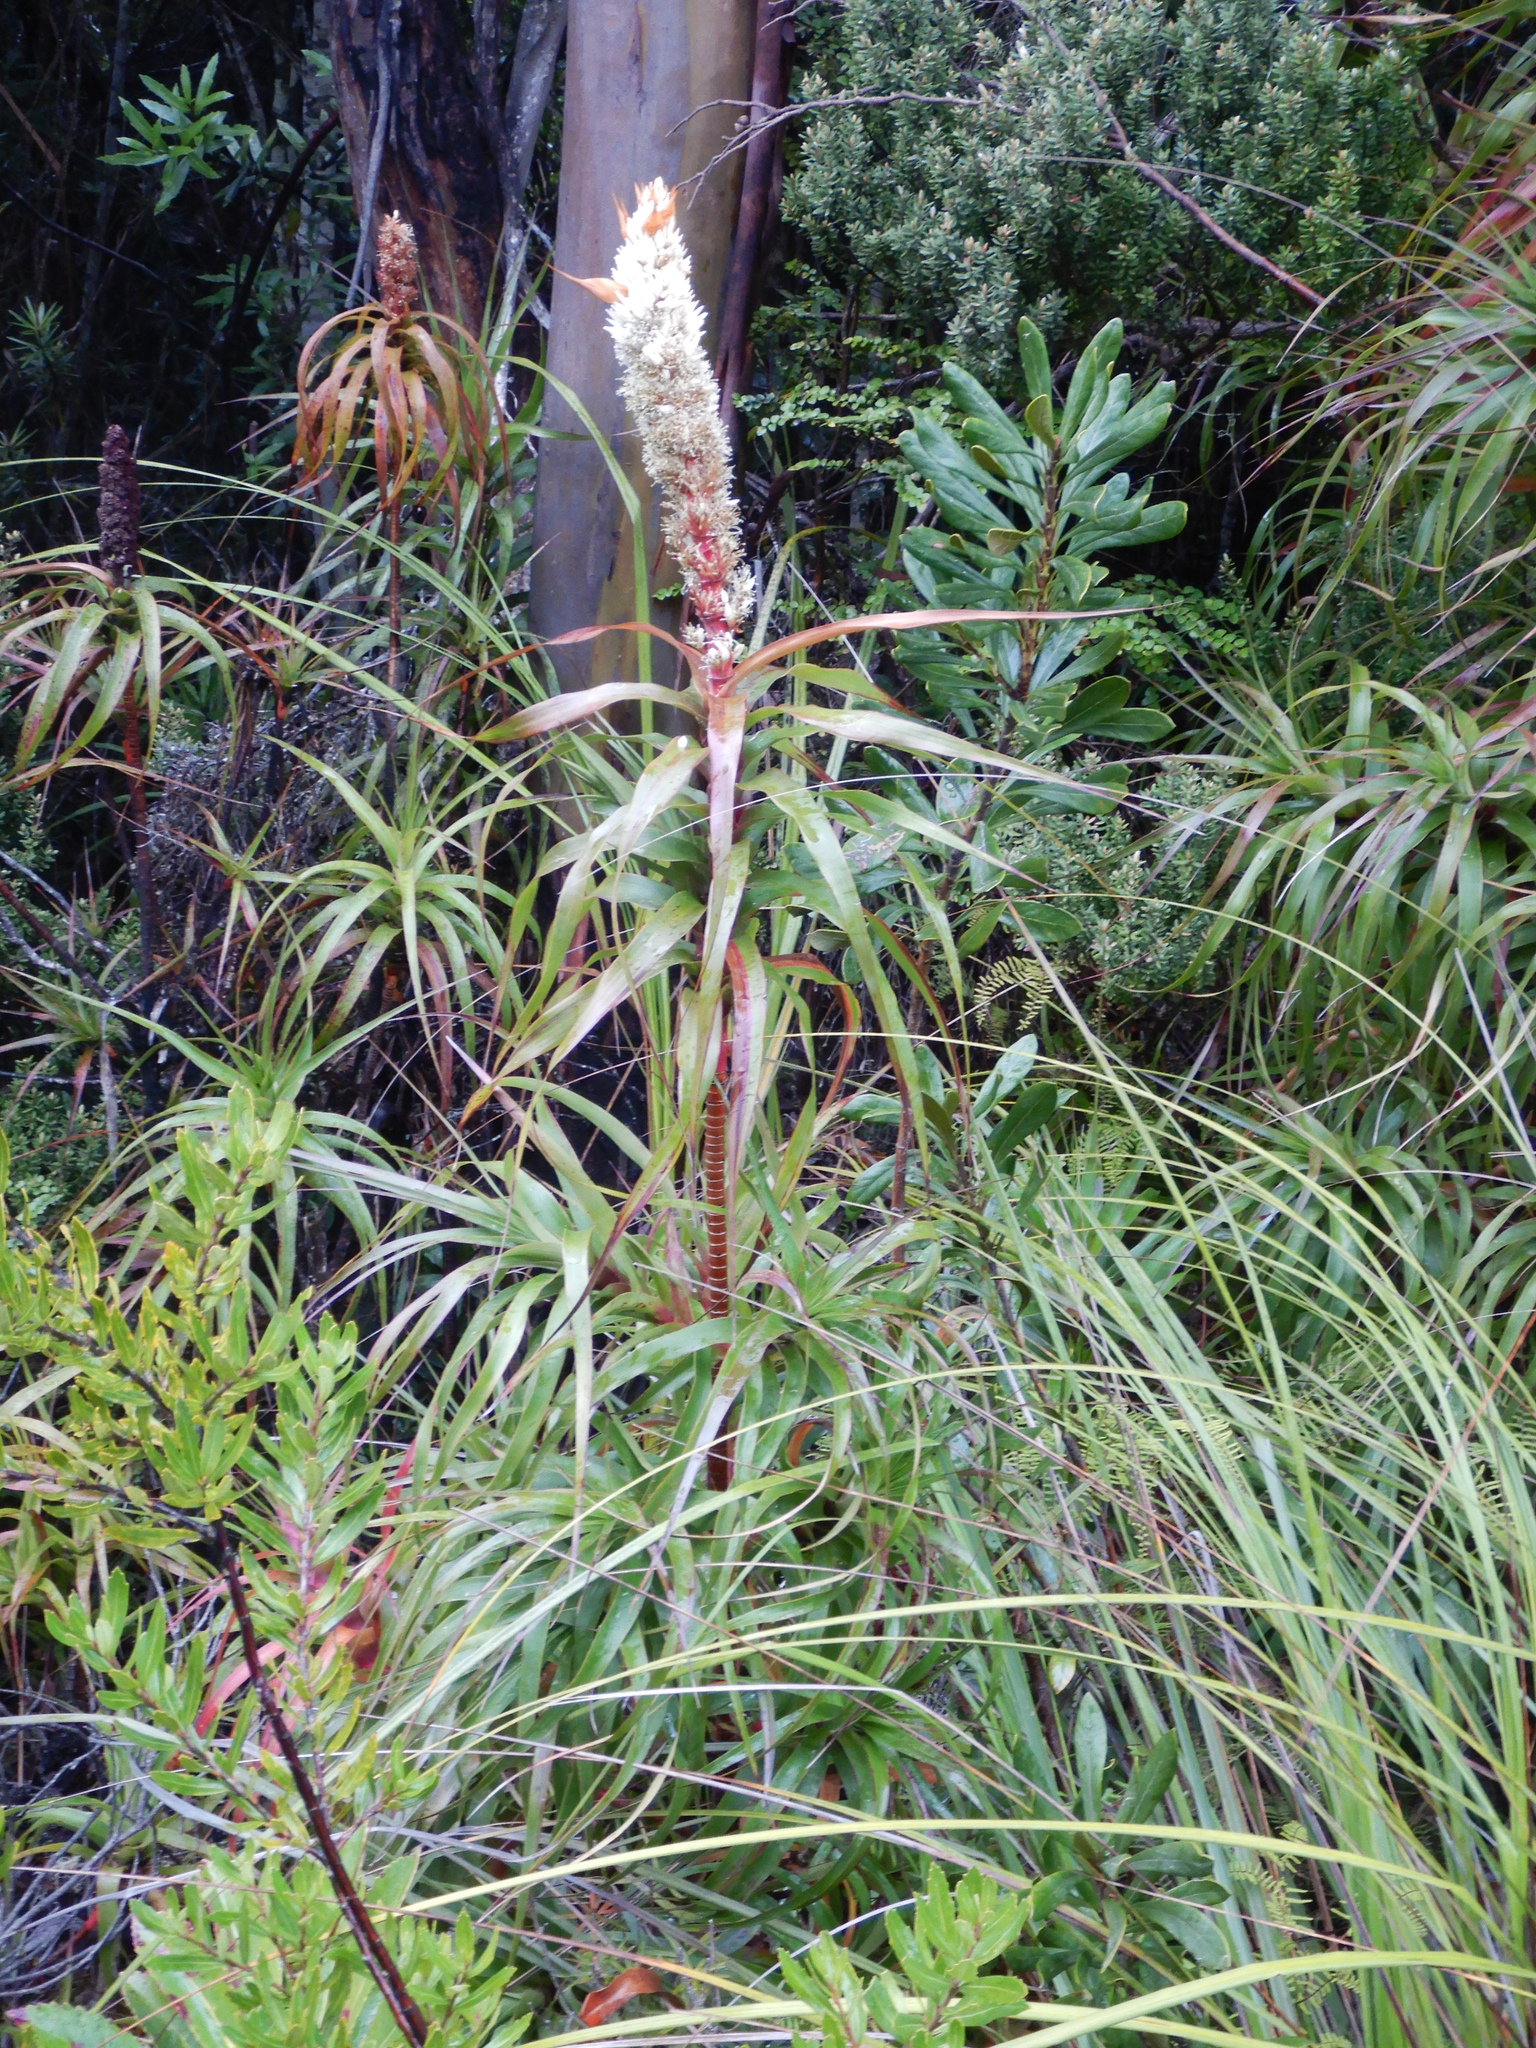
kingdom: Plantae
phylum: Tracheophyta
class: Magnoliopsida
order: Ericales
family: Ericaceae
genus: Dracophyllum
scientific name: Dracophyllum desgrazii
